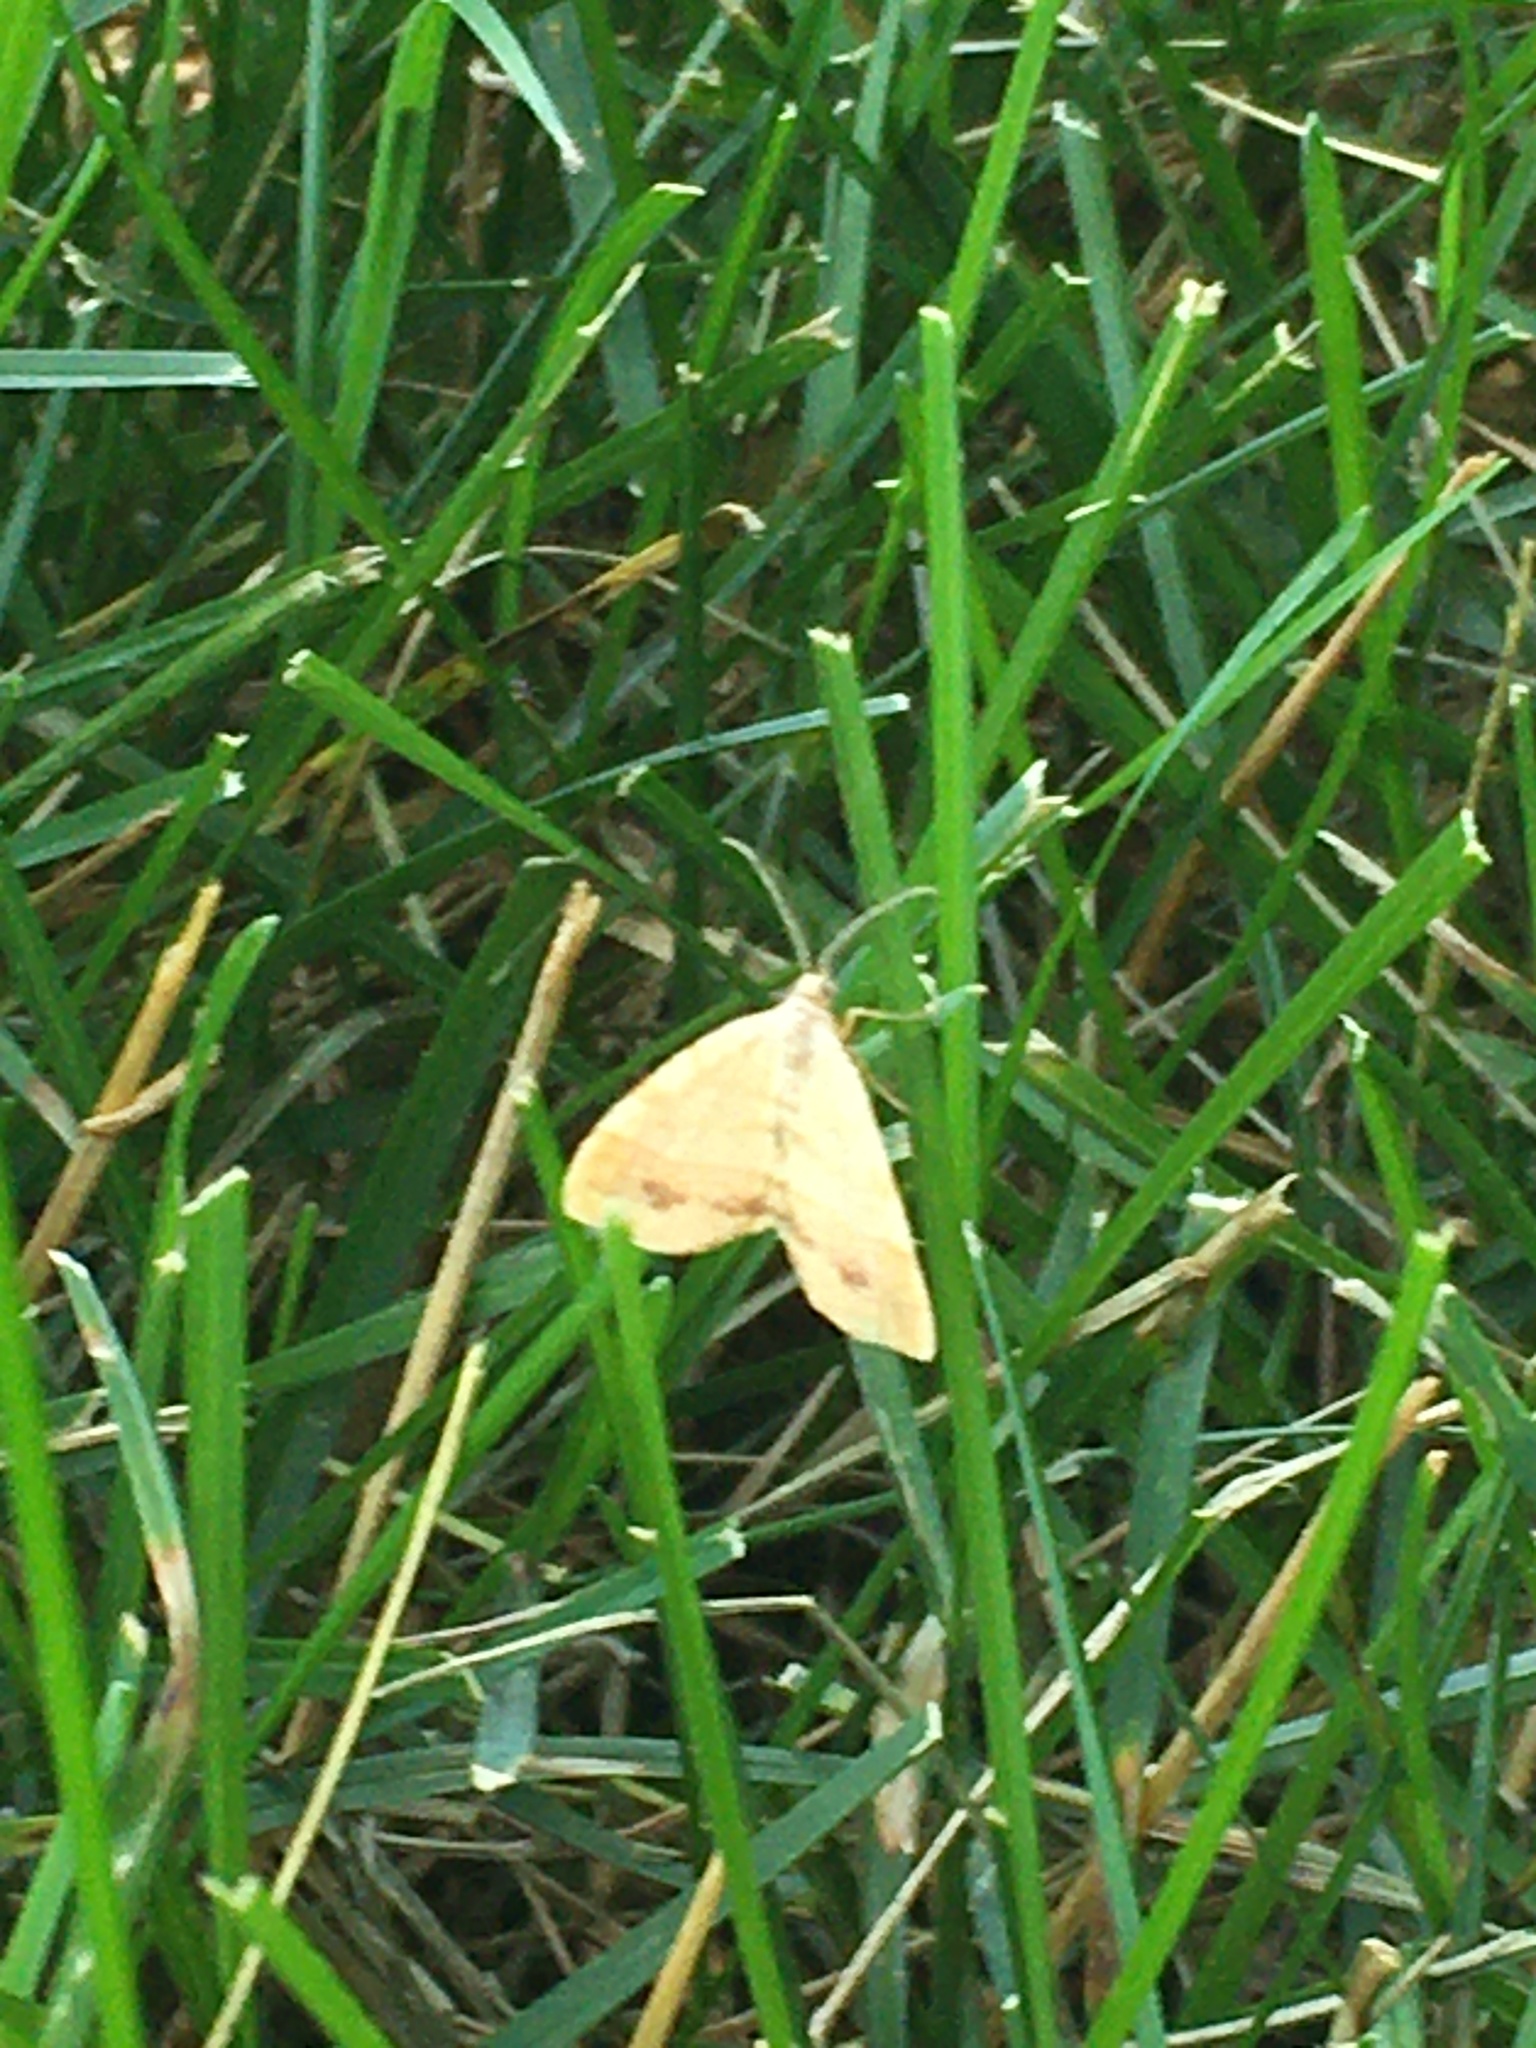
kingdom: Animalia
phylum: Arthropoda
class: Insecta
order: Lepidoptera
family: Geometridae
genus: Mellilla
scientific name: Mellilla xanthometata
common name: Orange wing moth
